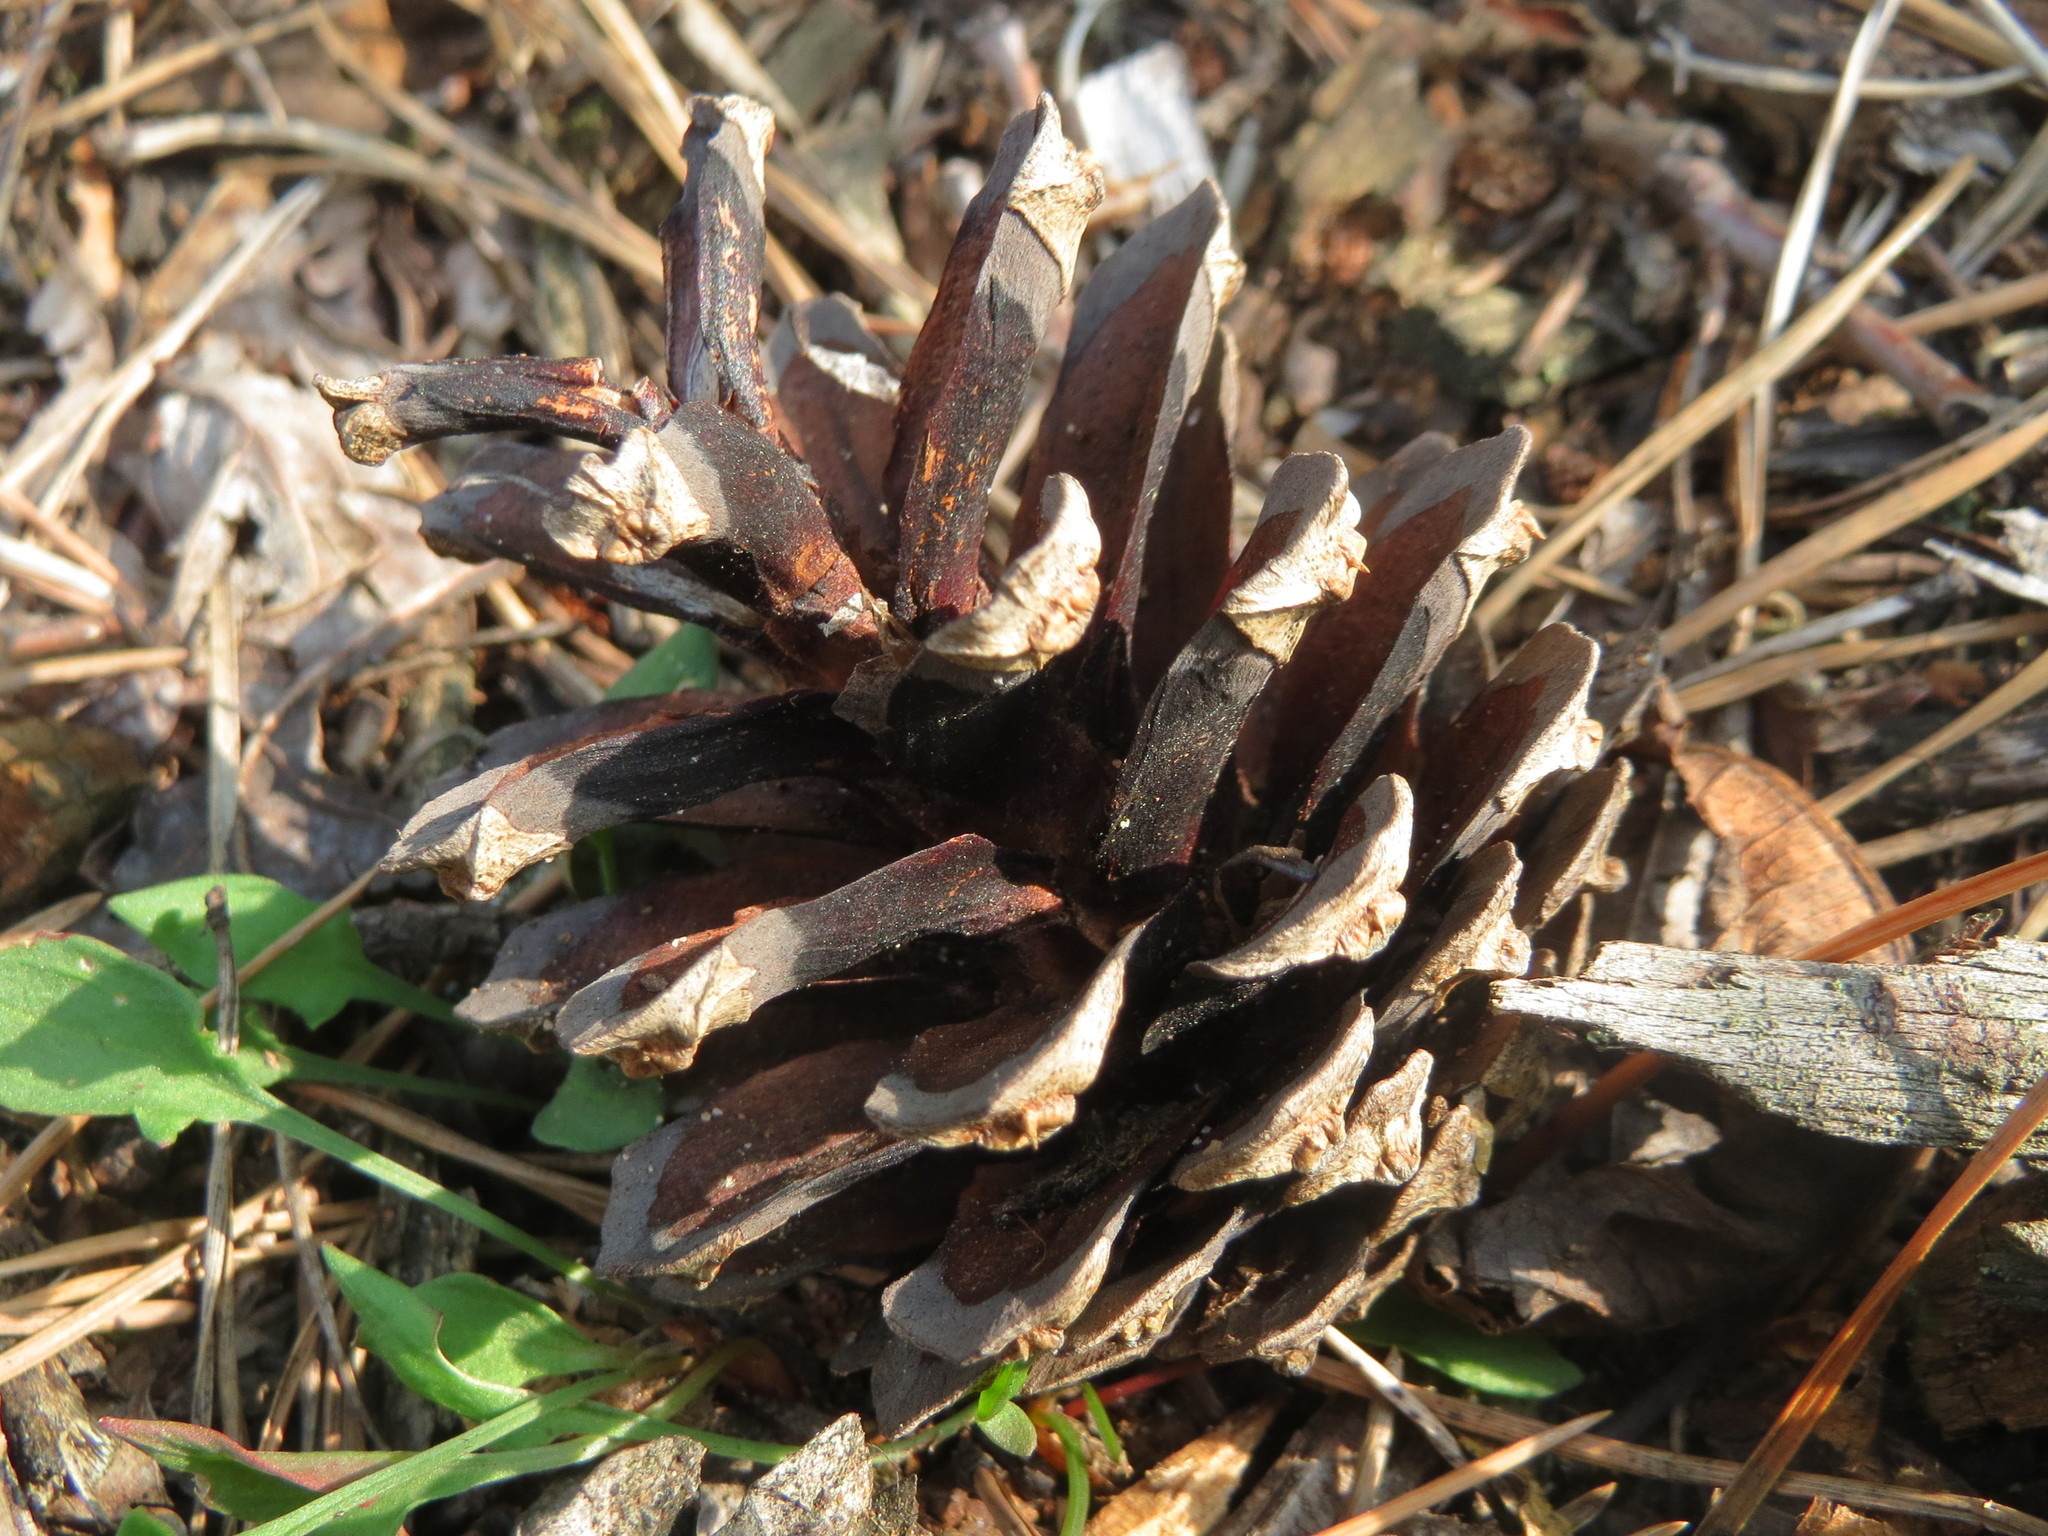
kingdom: Plantae
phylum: Tracheophyta
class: Pinopsida
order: Pinales
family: Pinaceae
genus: Pinus
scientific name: Pinus sylvestris
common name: Scots pine
